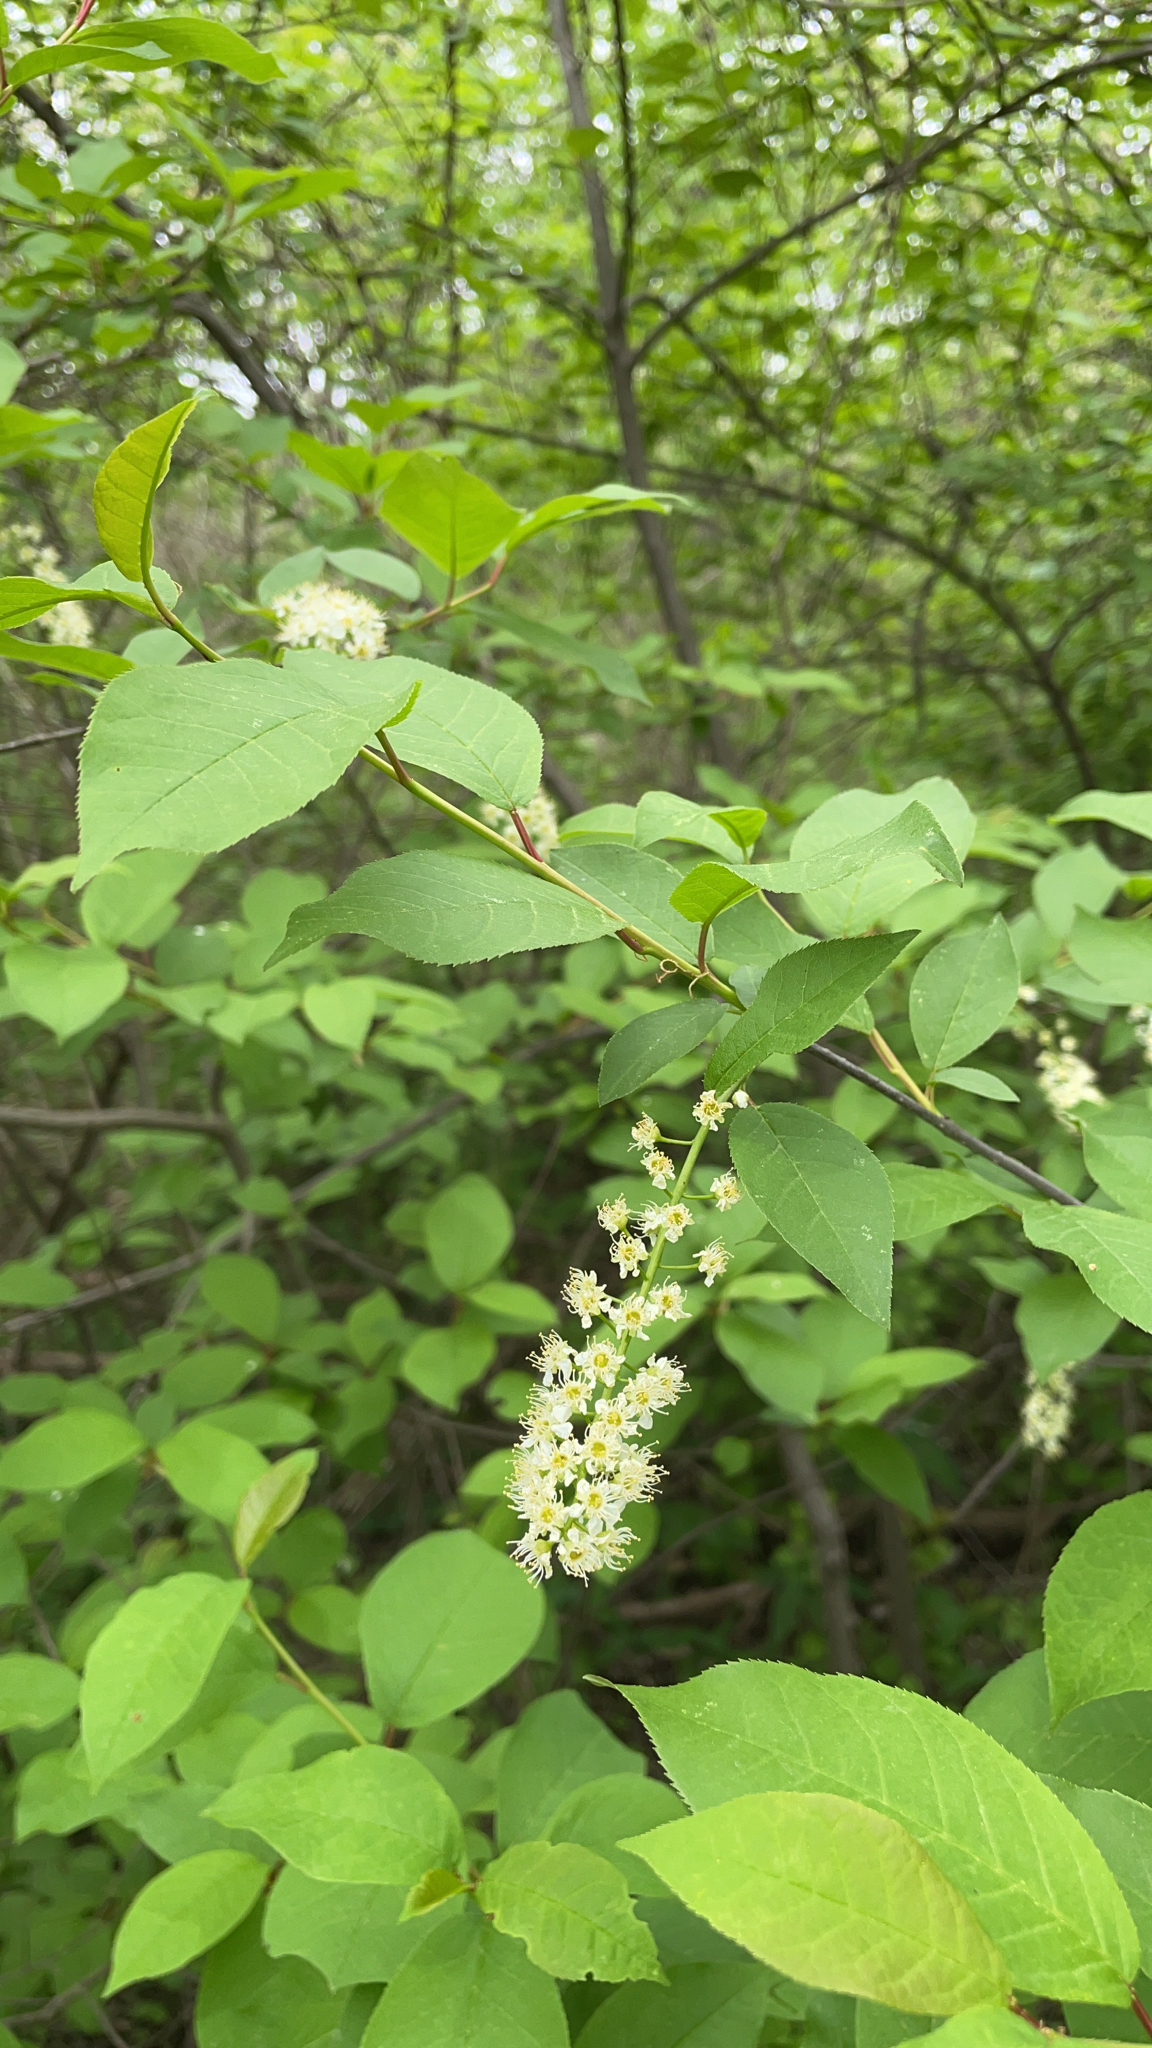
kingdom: Plantae
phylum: Tracheophyta
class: Magnoliopsida
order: Rosales
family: Rosaceae
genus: Prunus
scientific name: Prunus virginiana
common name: Chokecherry
